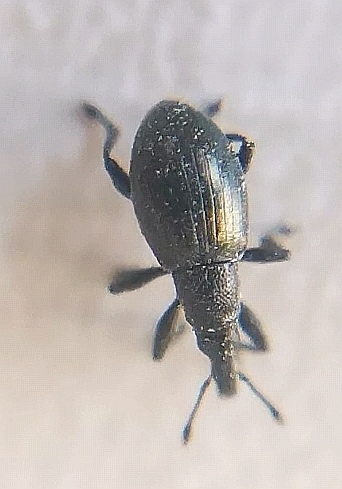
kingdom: Animalia
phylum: Arthropoda
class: Insecta
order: Coleoptera
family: Curculionidae
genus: Sphenomorpha
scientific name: Sphenomorpha aenea
